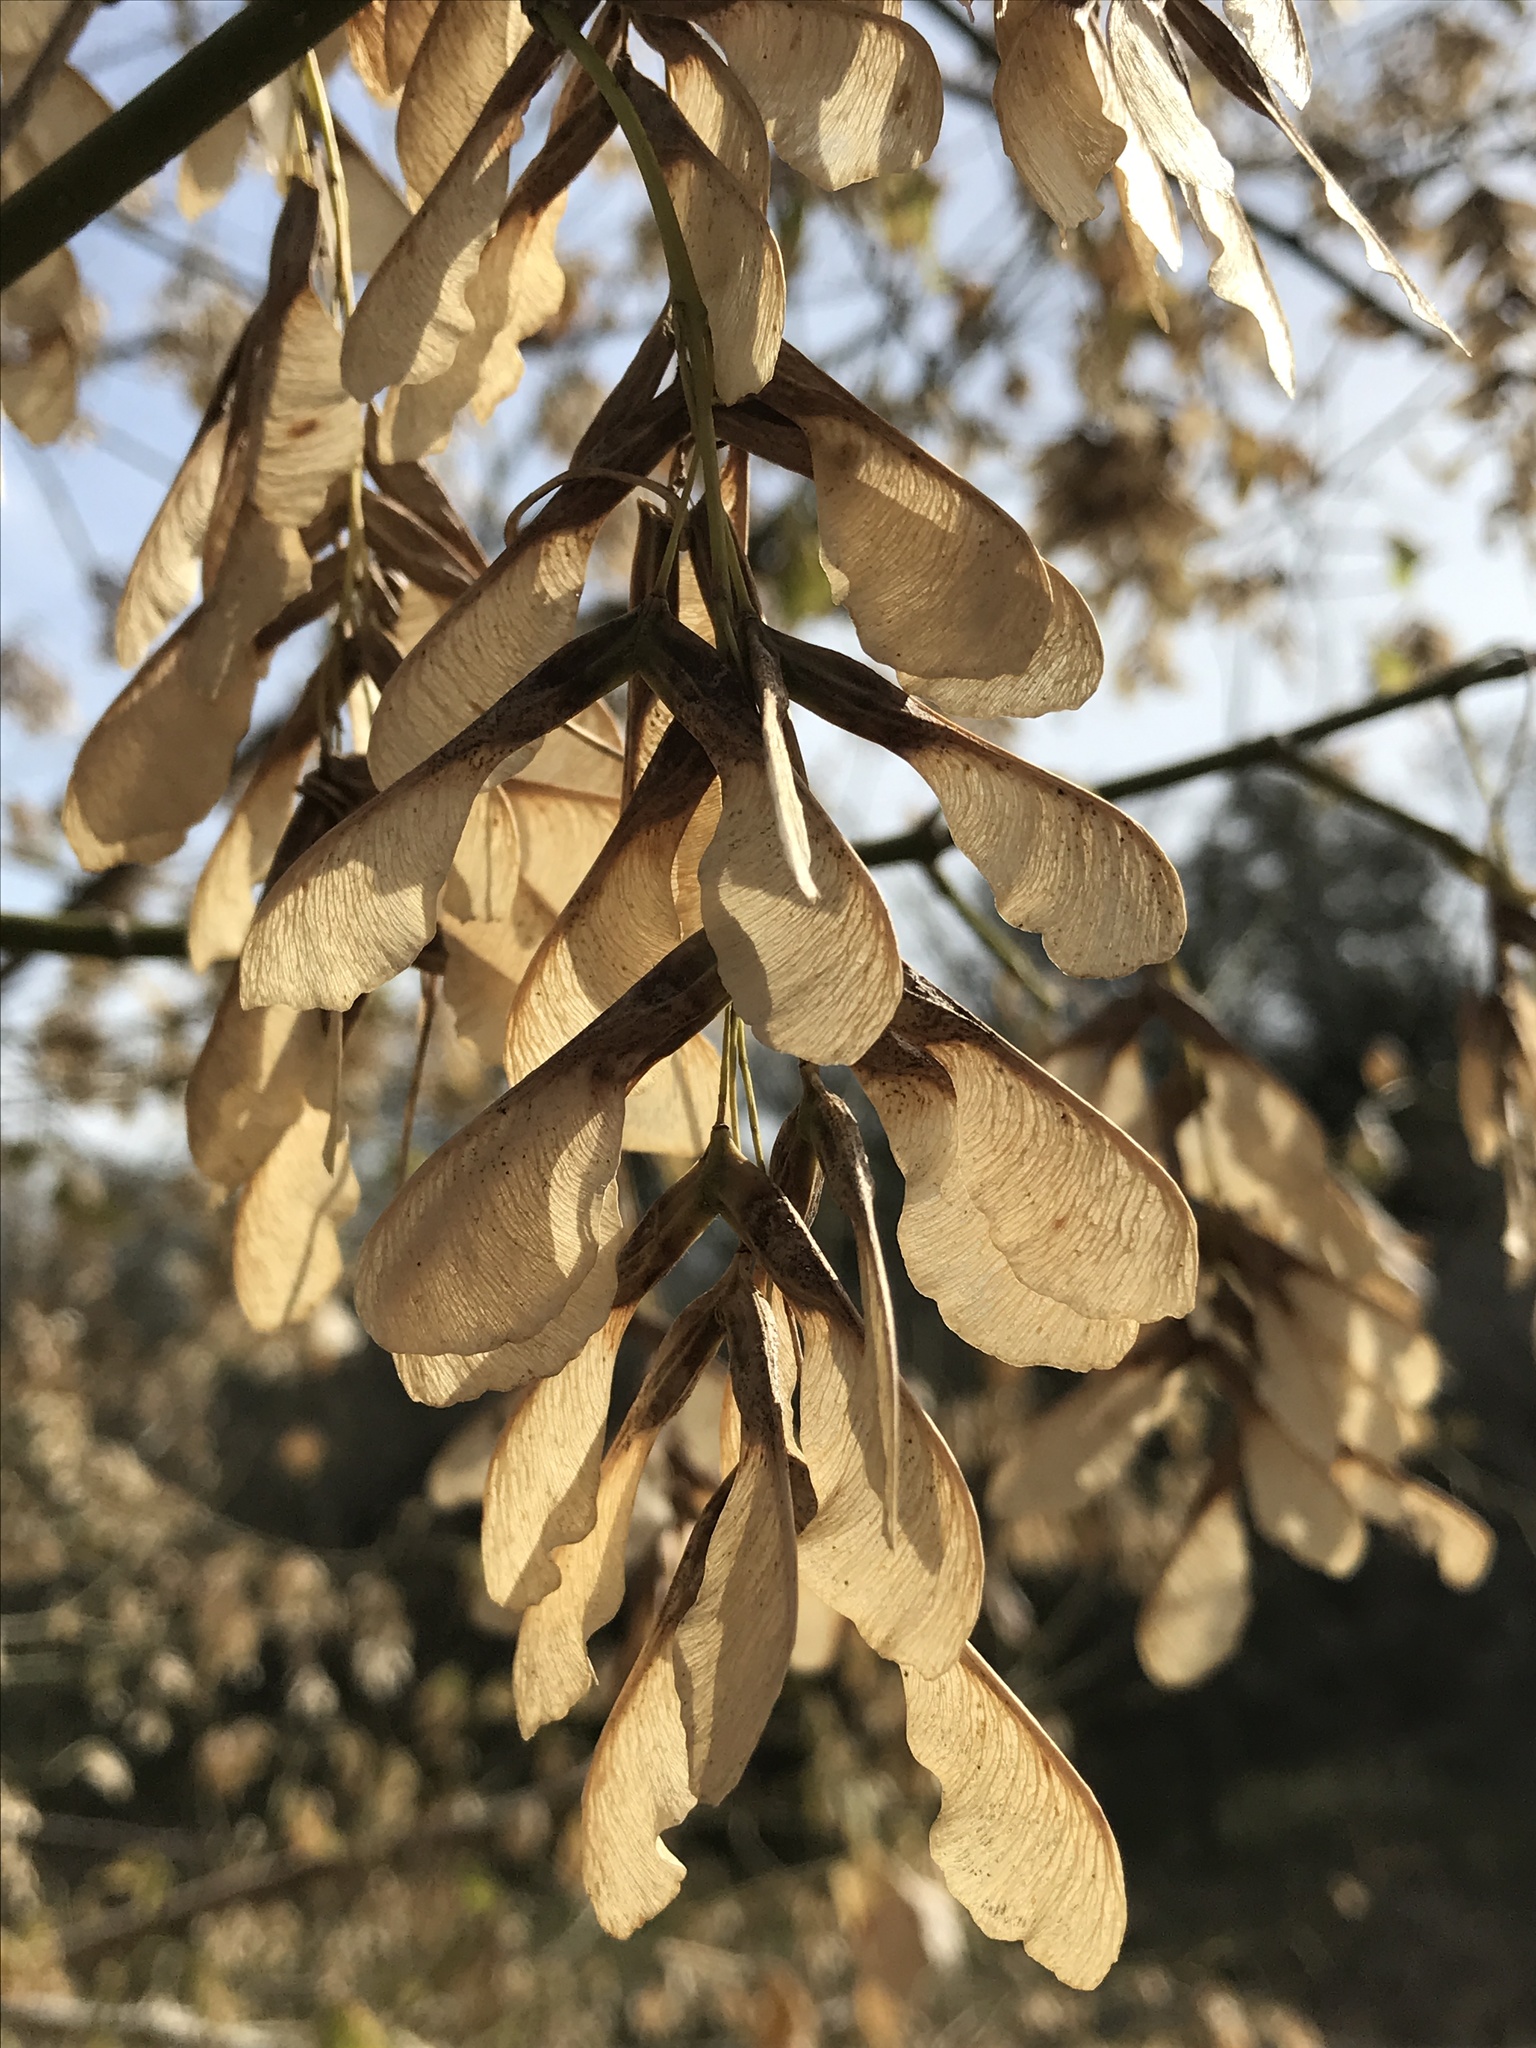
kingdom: Plantae
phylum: Tracheophyta
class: Magnoliopsida
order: Sapindales
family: Sapindaceae
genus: Acer
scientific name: Acer negundo
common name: Ashleaf maple
